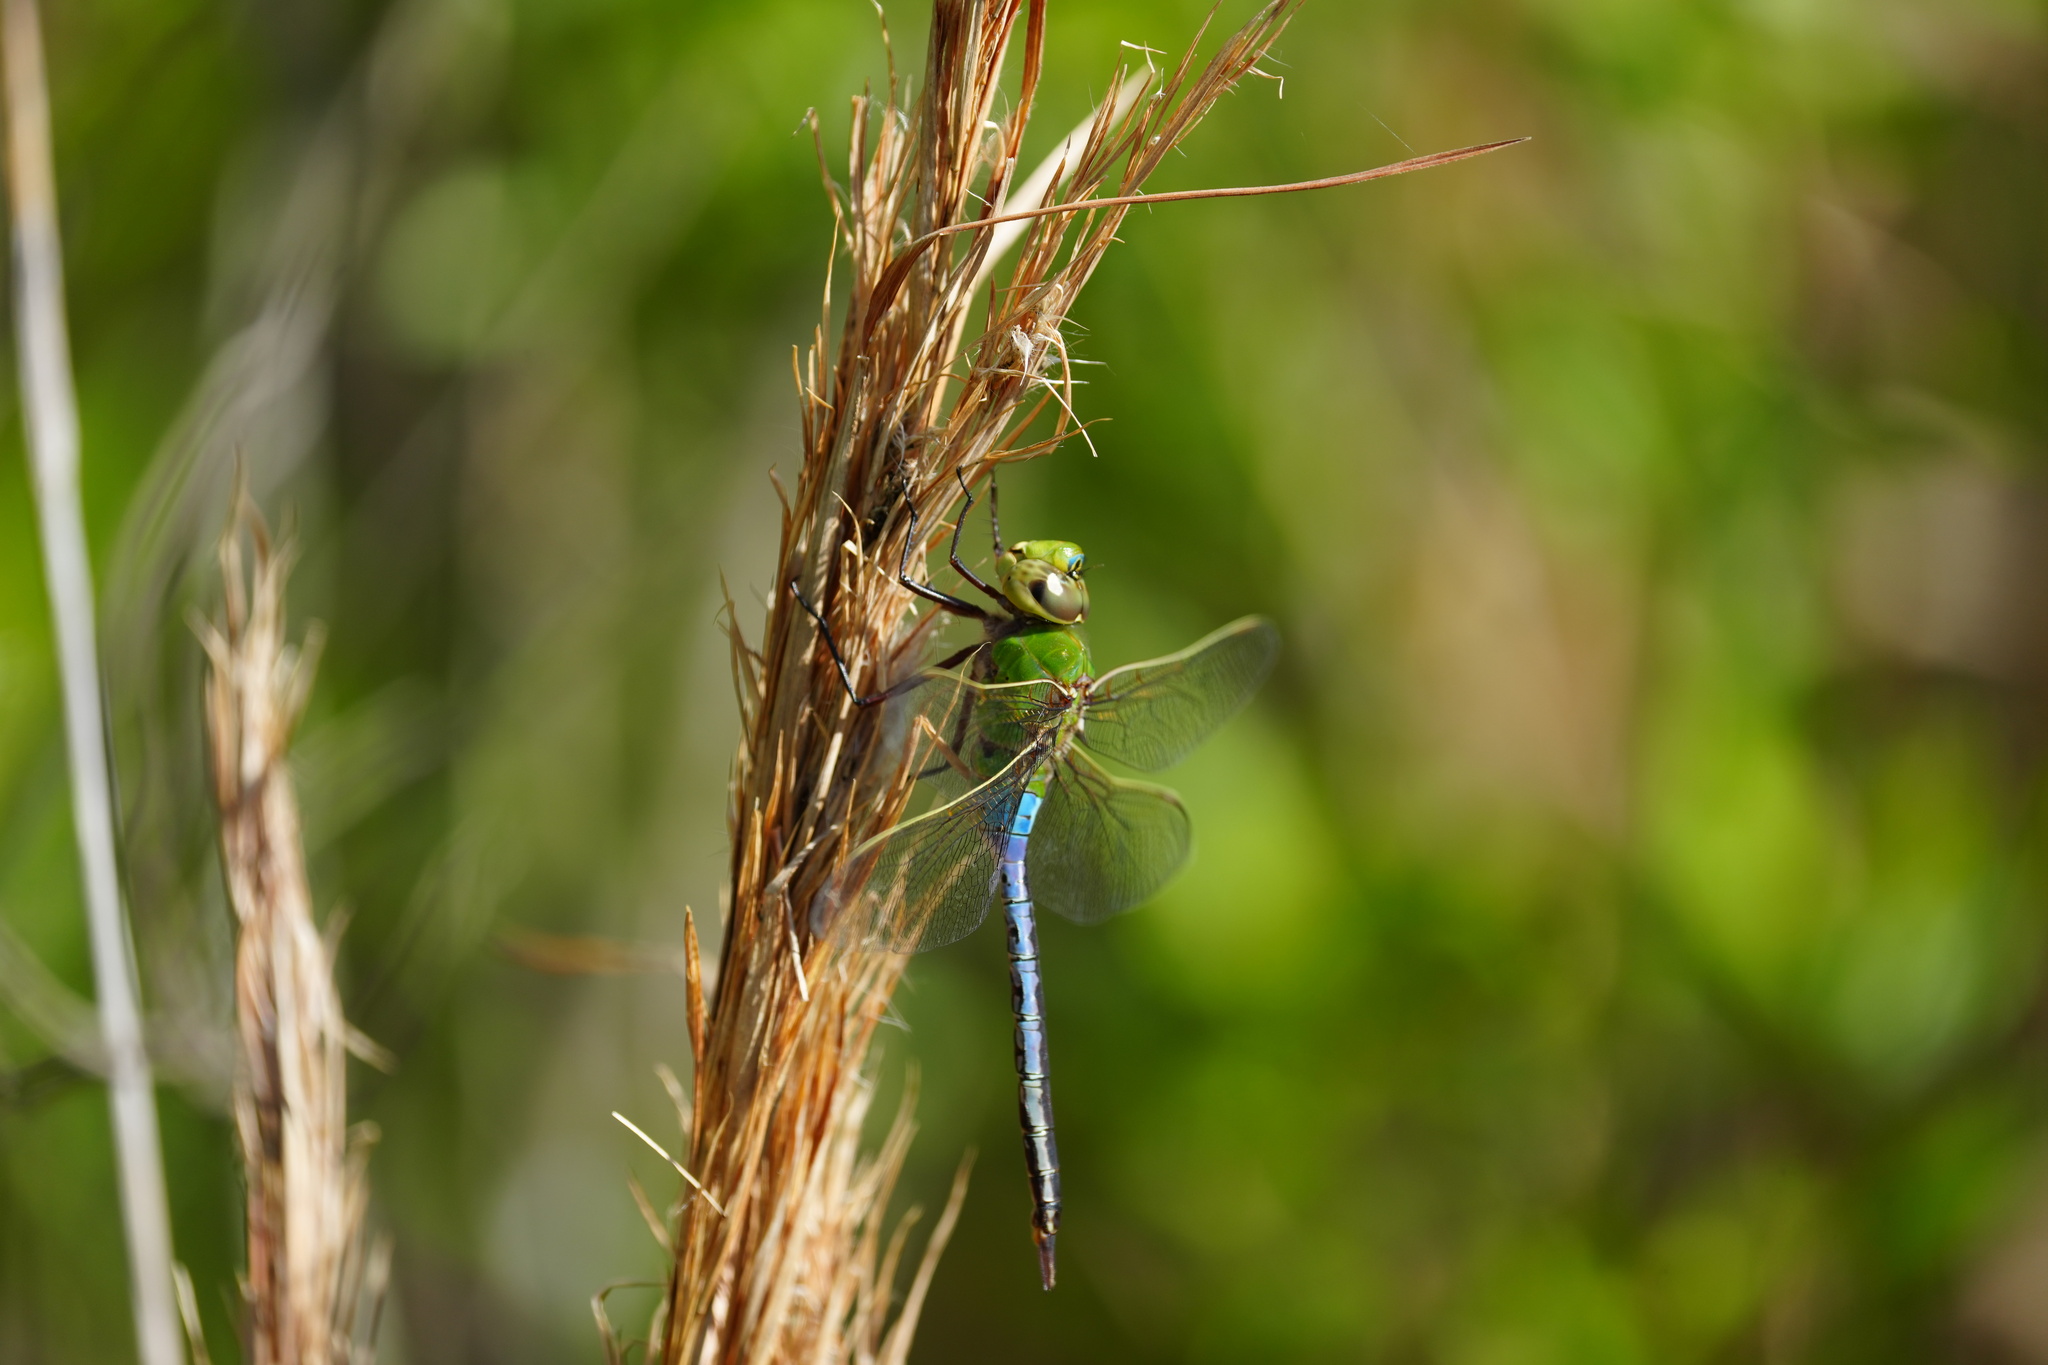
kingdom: Animalia
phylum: Arthropoda
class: Insecta
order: Odonata
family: Aeshnidae
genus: Anax
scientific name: Anax junius
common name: Common green darner
